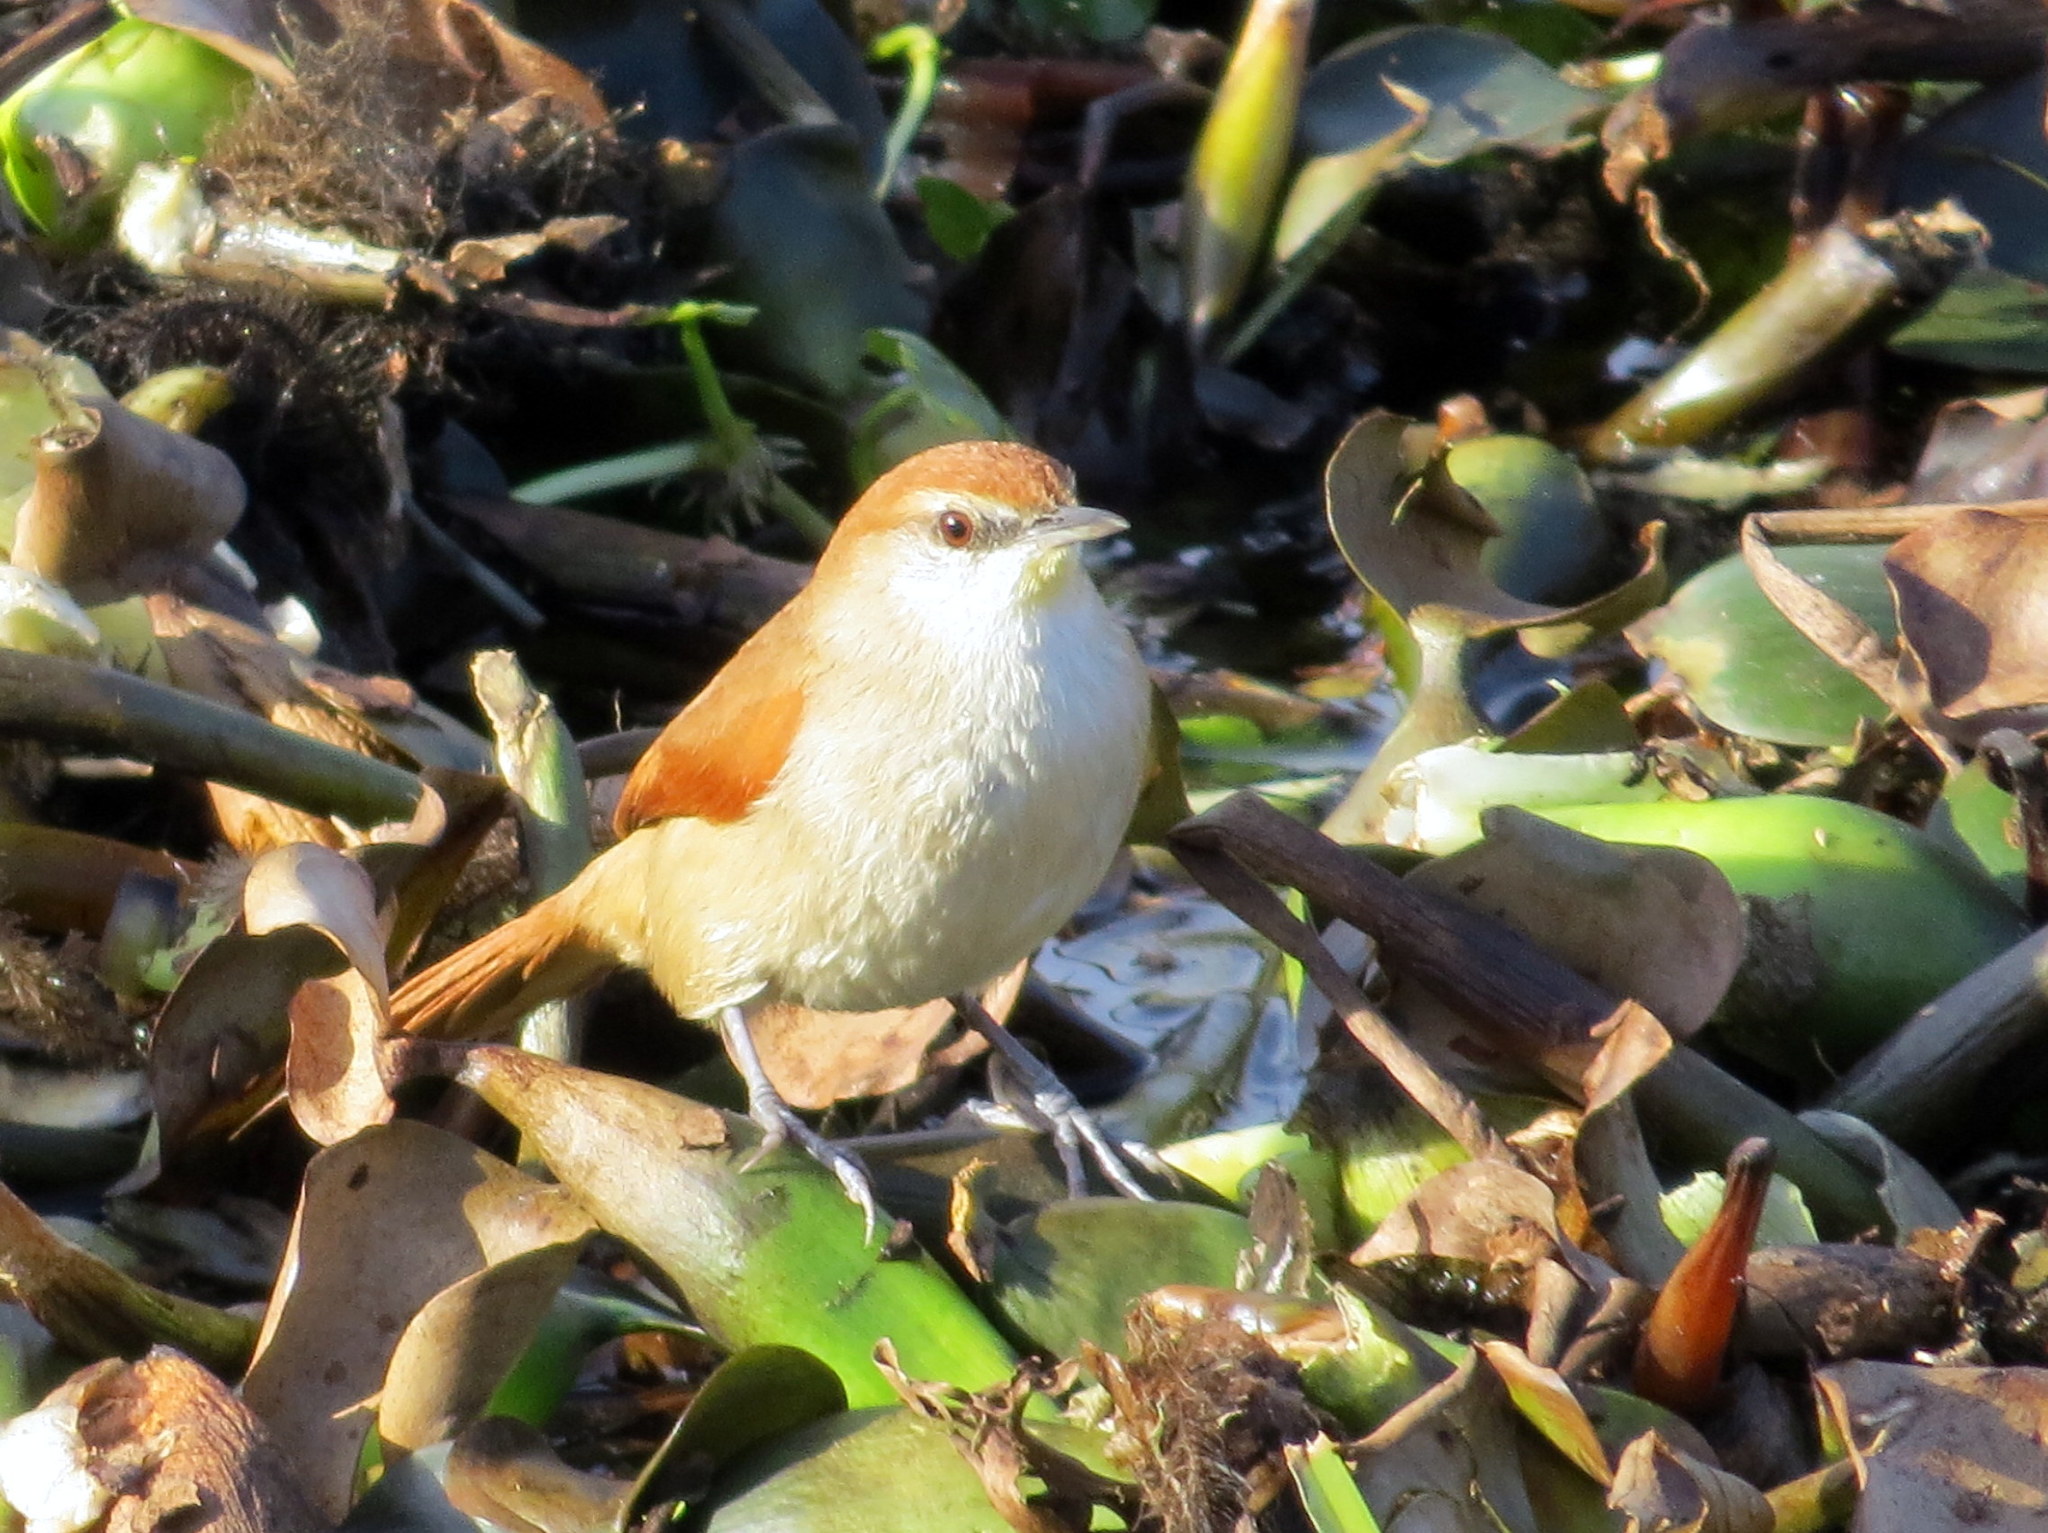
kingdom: Animalia
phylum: Chordata
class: Aves
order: Passeriformes
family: Furnariidae
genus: Certhiaxis
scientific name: Certhiaxis cinnamomeus
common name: Yellow-chinned spinetail
